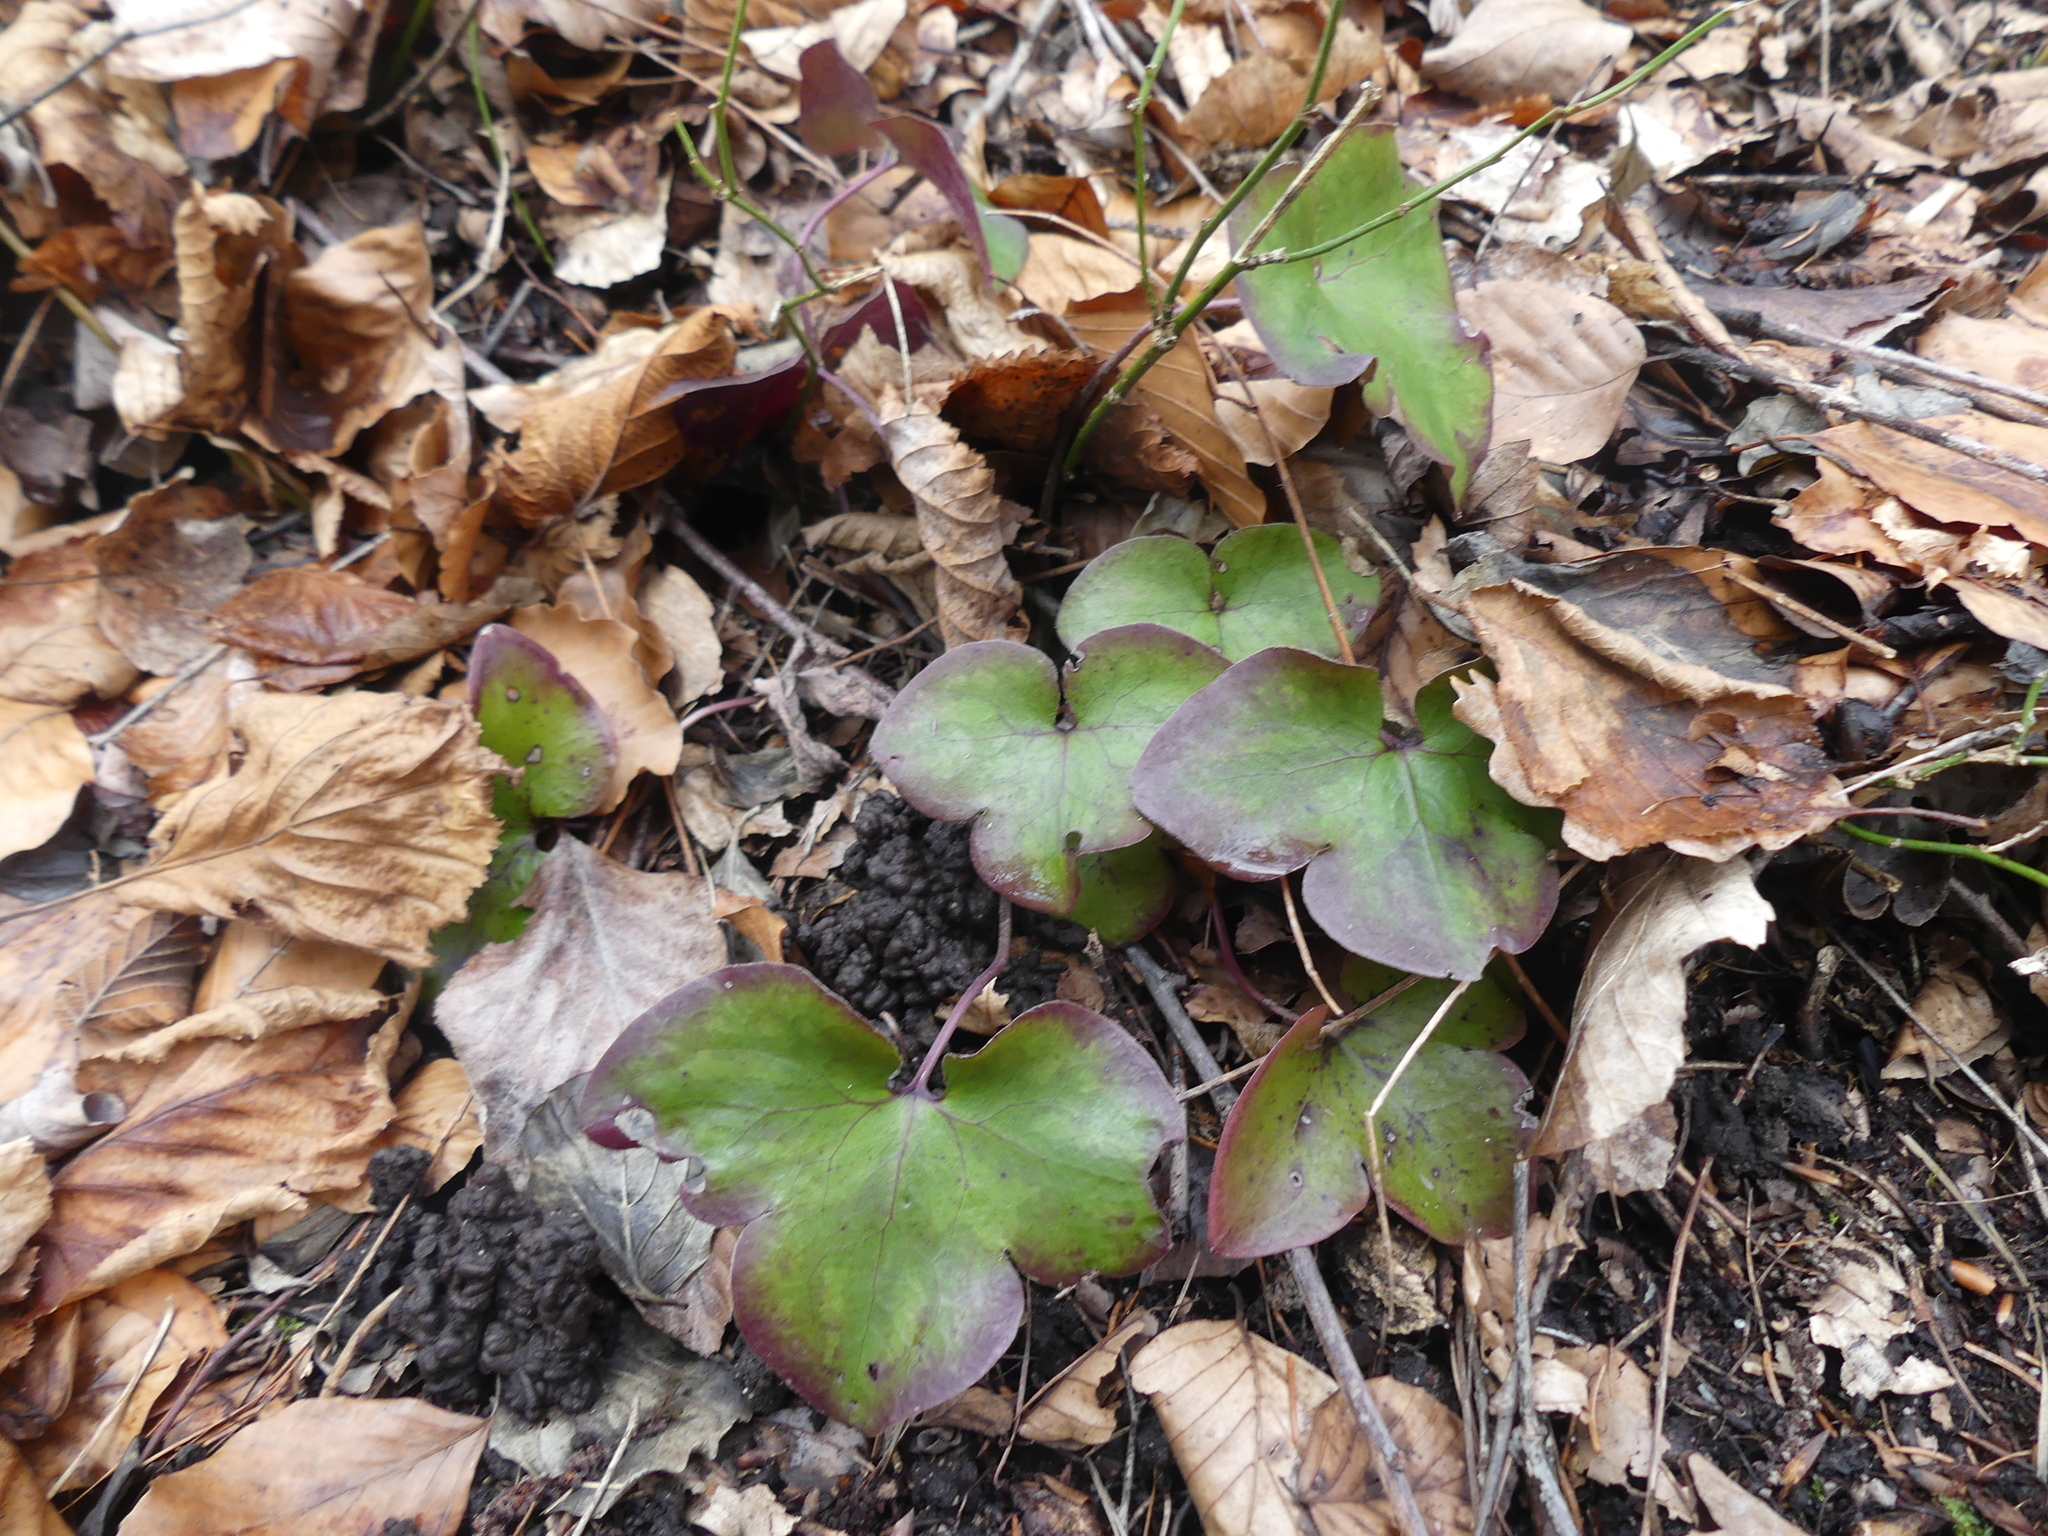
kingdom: Plantae
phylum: Tracheophyta
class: Magnoliopsida
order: Ranunculales
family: Ranunculaceae
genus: Hepatica
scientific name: Hepatica nobilis
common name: Liverleaf
